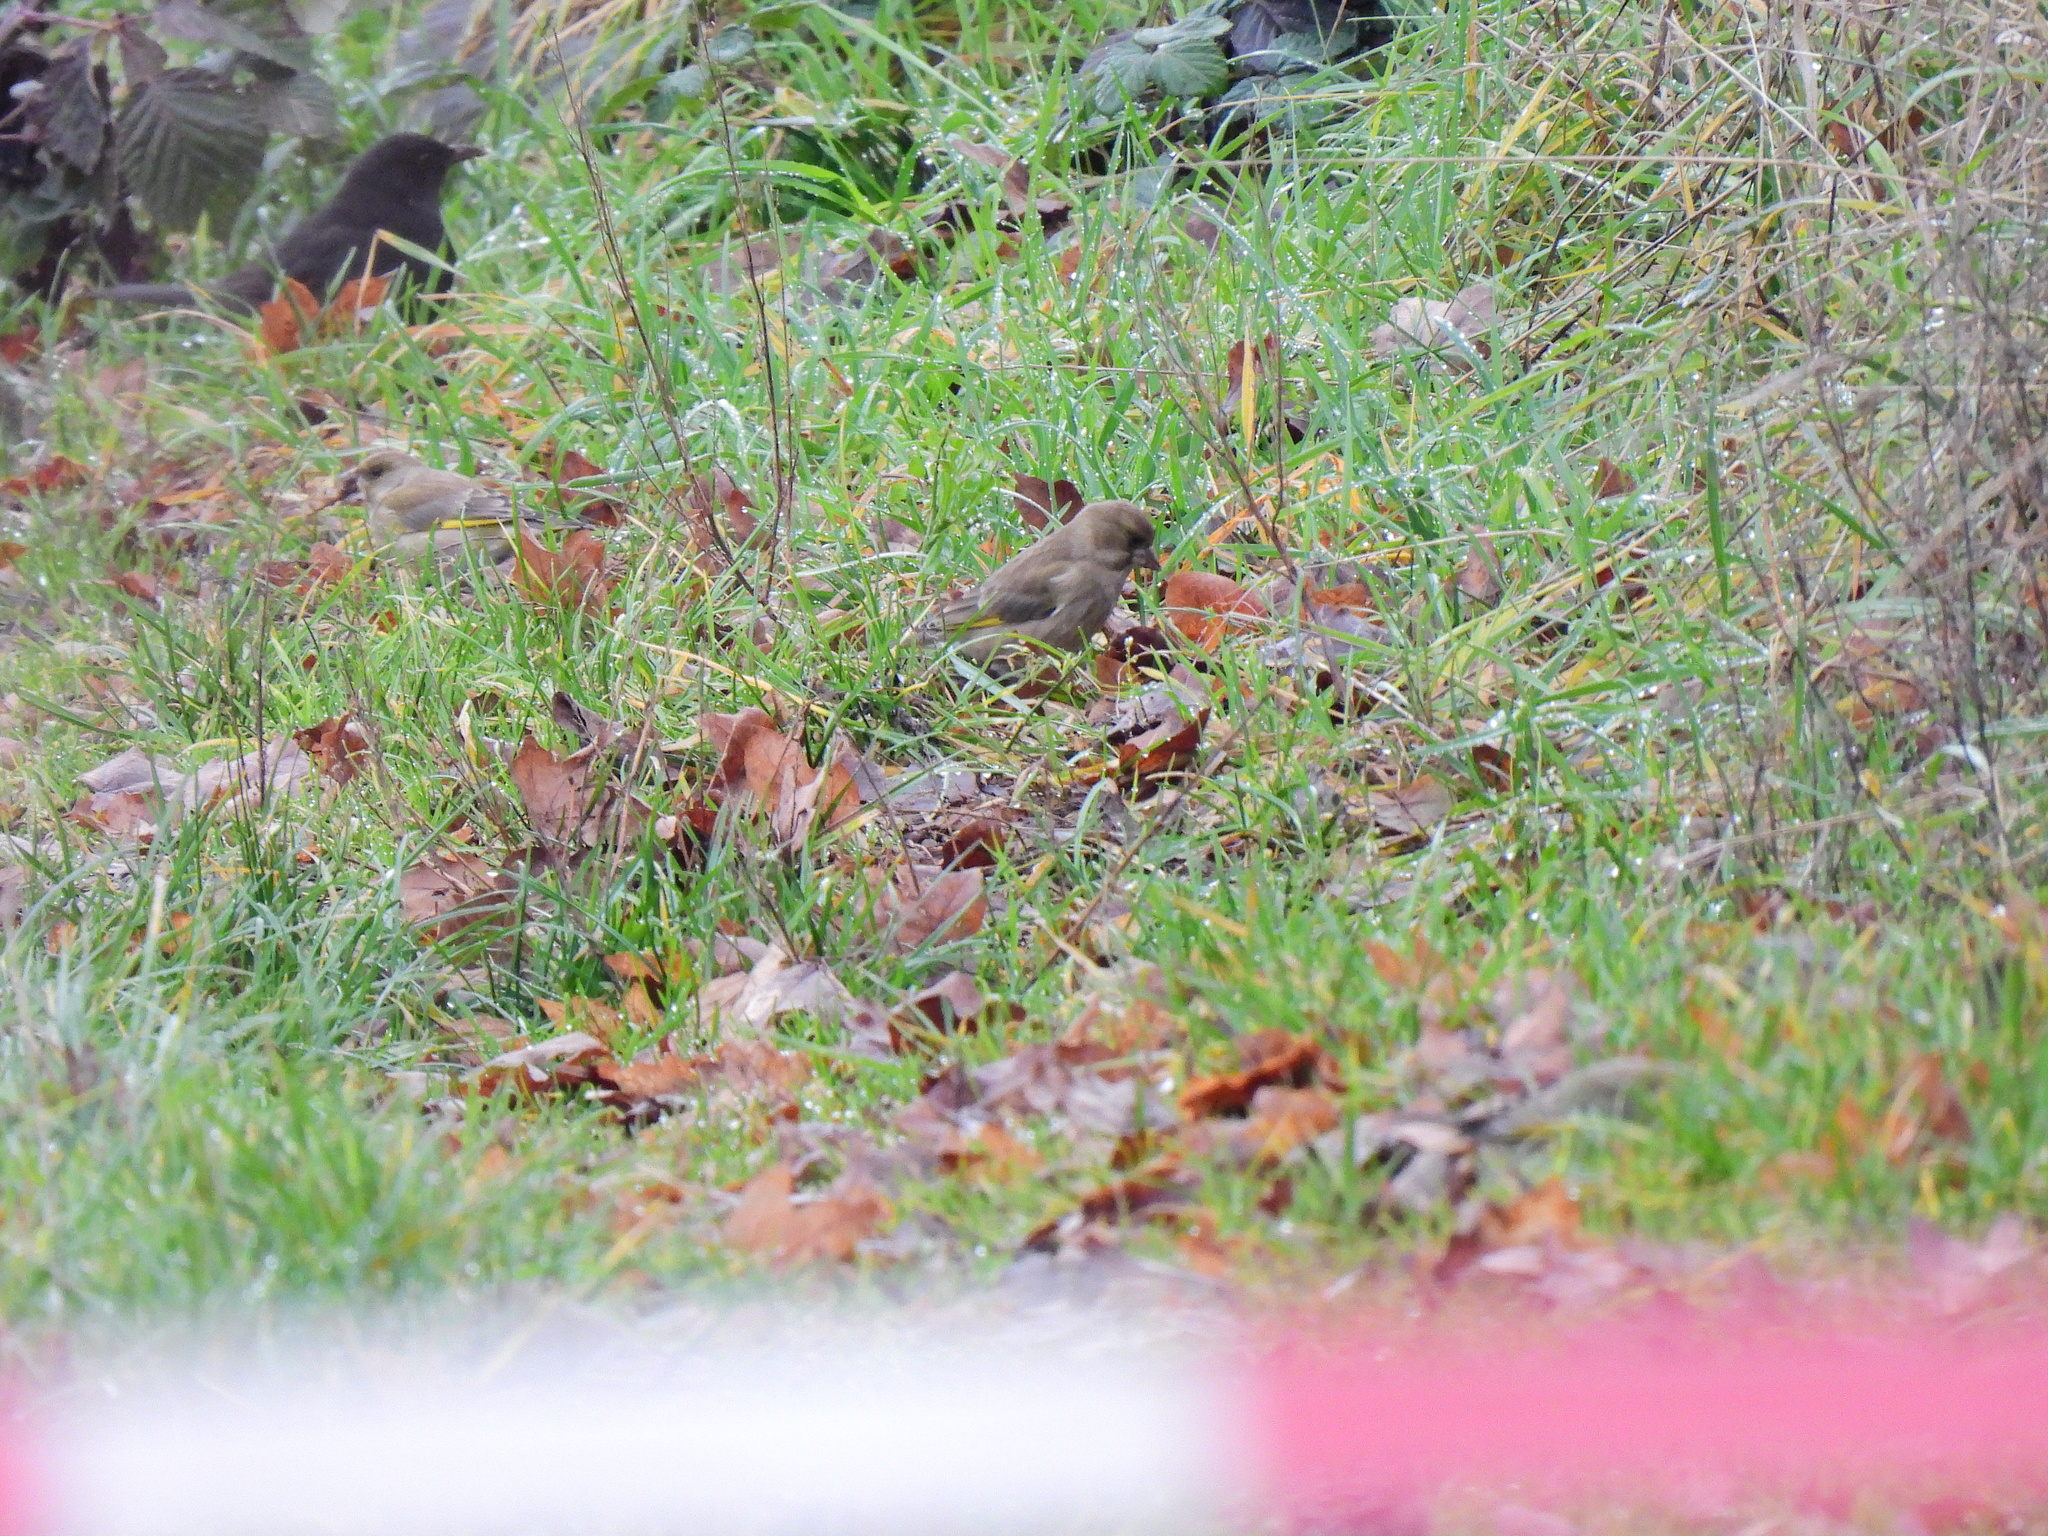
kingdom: Plantae
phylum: Tracheophyta
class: Liliopsida
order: Poales
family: Poaceae
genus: Chloris
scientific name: Chloris chloris
